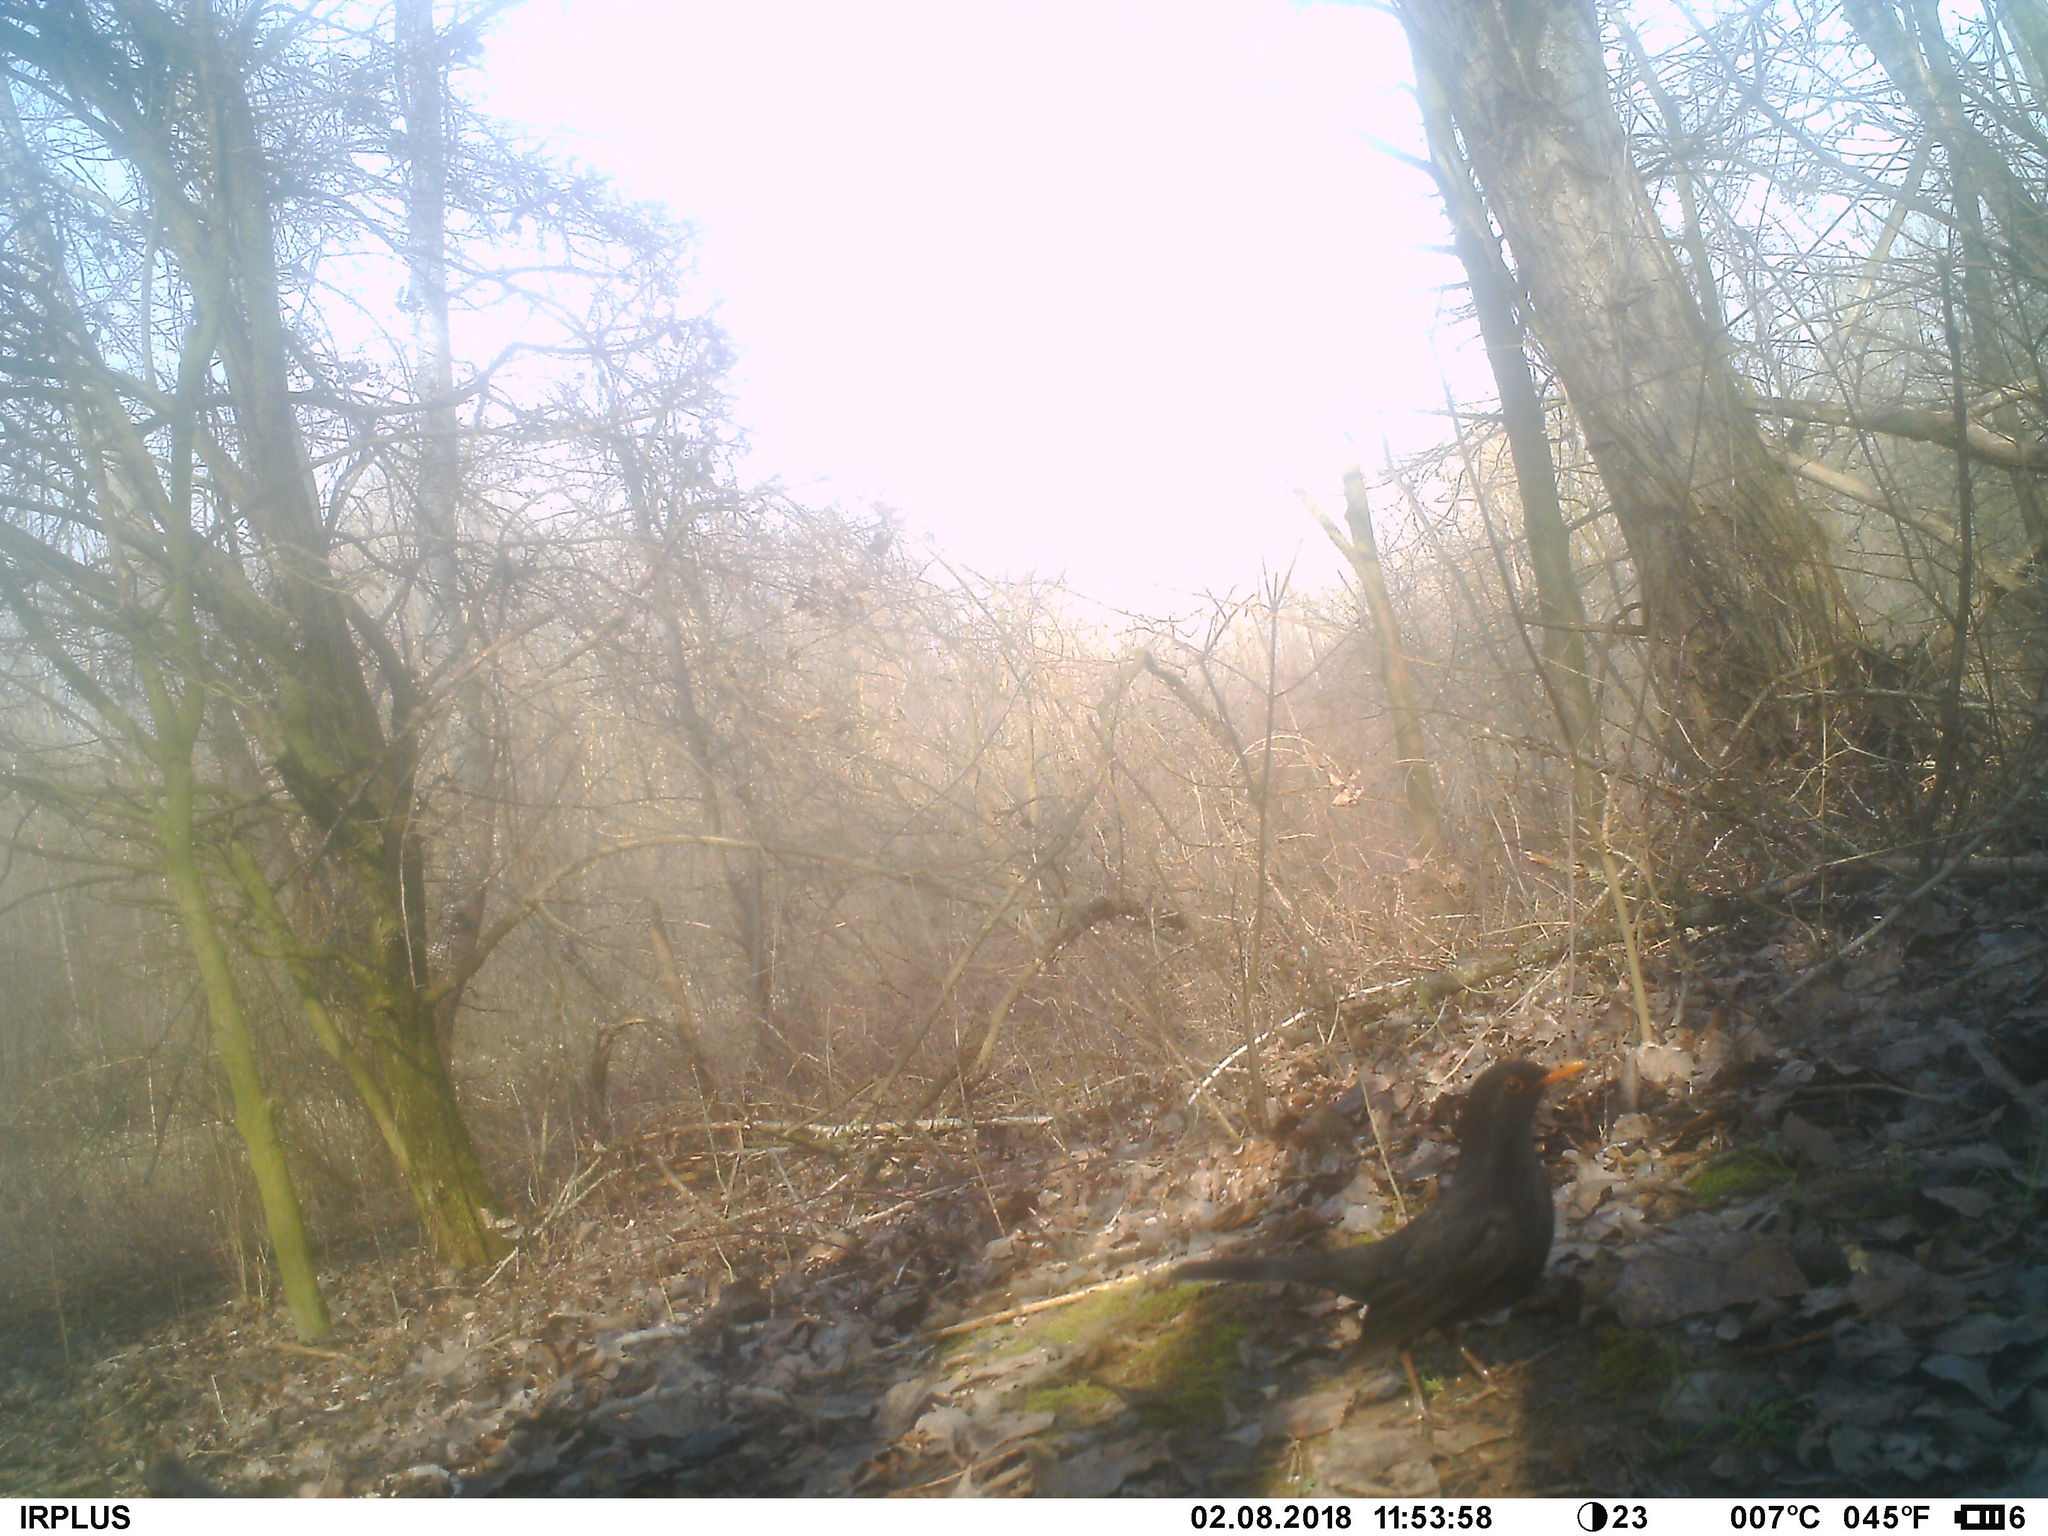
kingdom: Animalia
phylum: Chordata
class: Aves
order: Passeriformes
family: Turdidae
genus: Turdus
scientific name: Turdus merula
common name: Common blackbird
